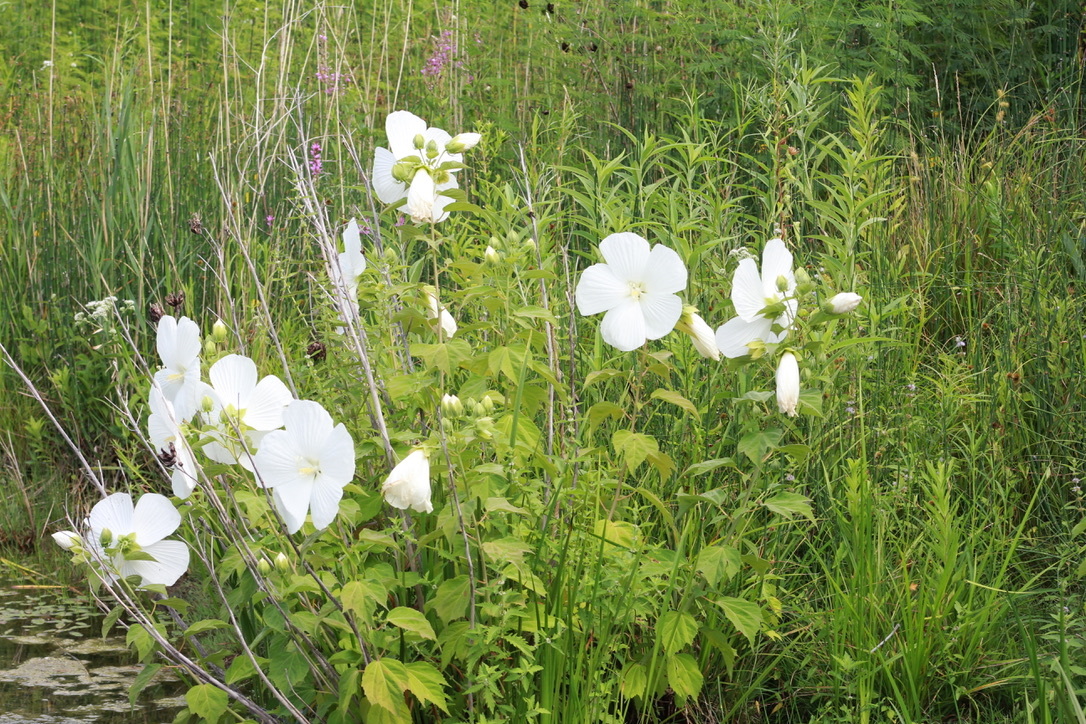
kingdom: Plantae
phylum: Tracheophyta
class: Magnoliopsida
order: Malvales
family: Malvaceae
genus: Hibiscus
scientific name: Hibiscus moscheutos
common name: Common rose-mallow
